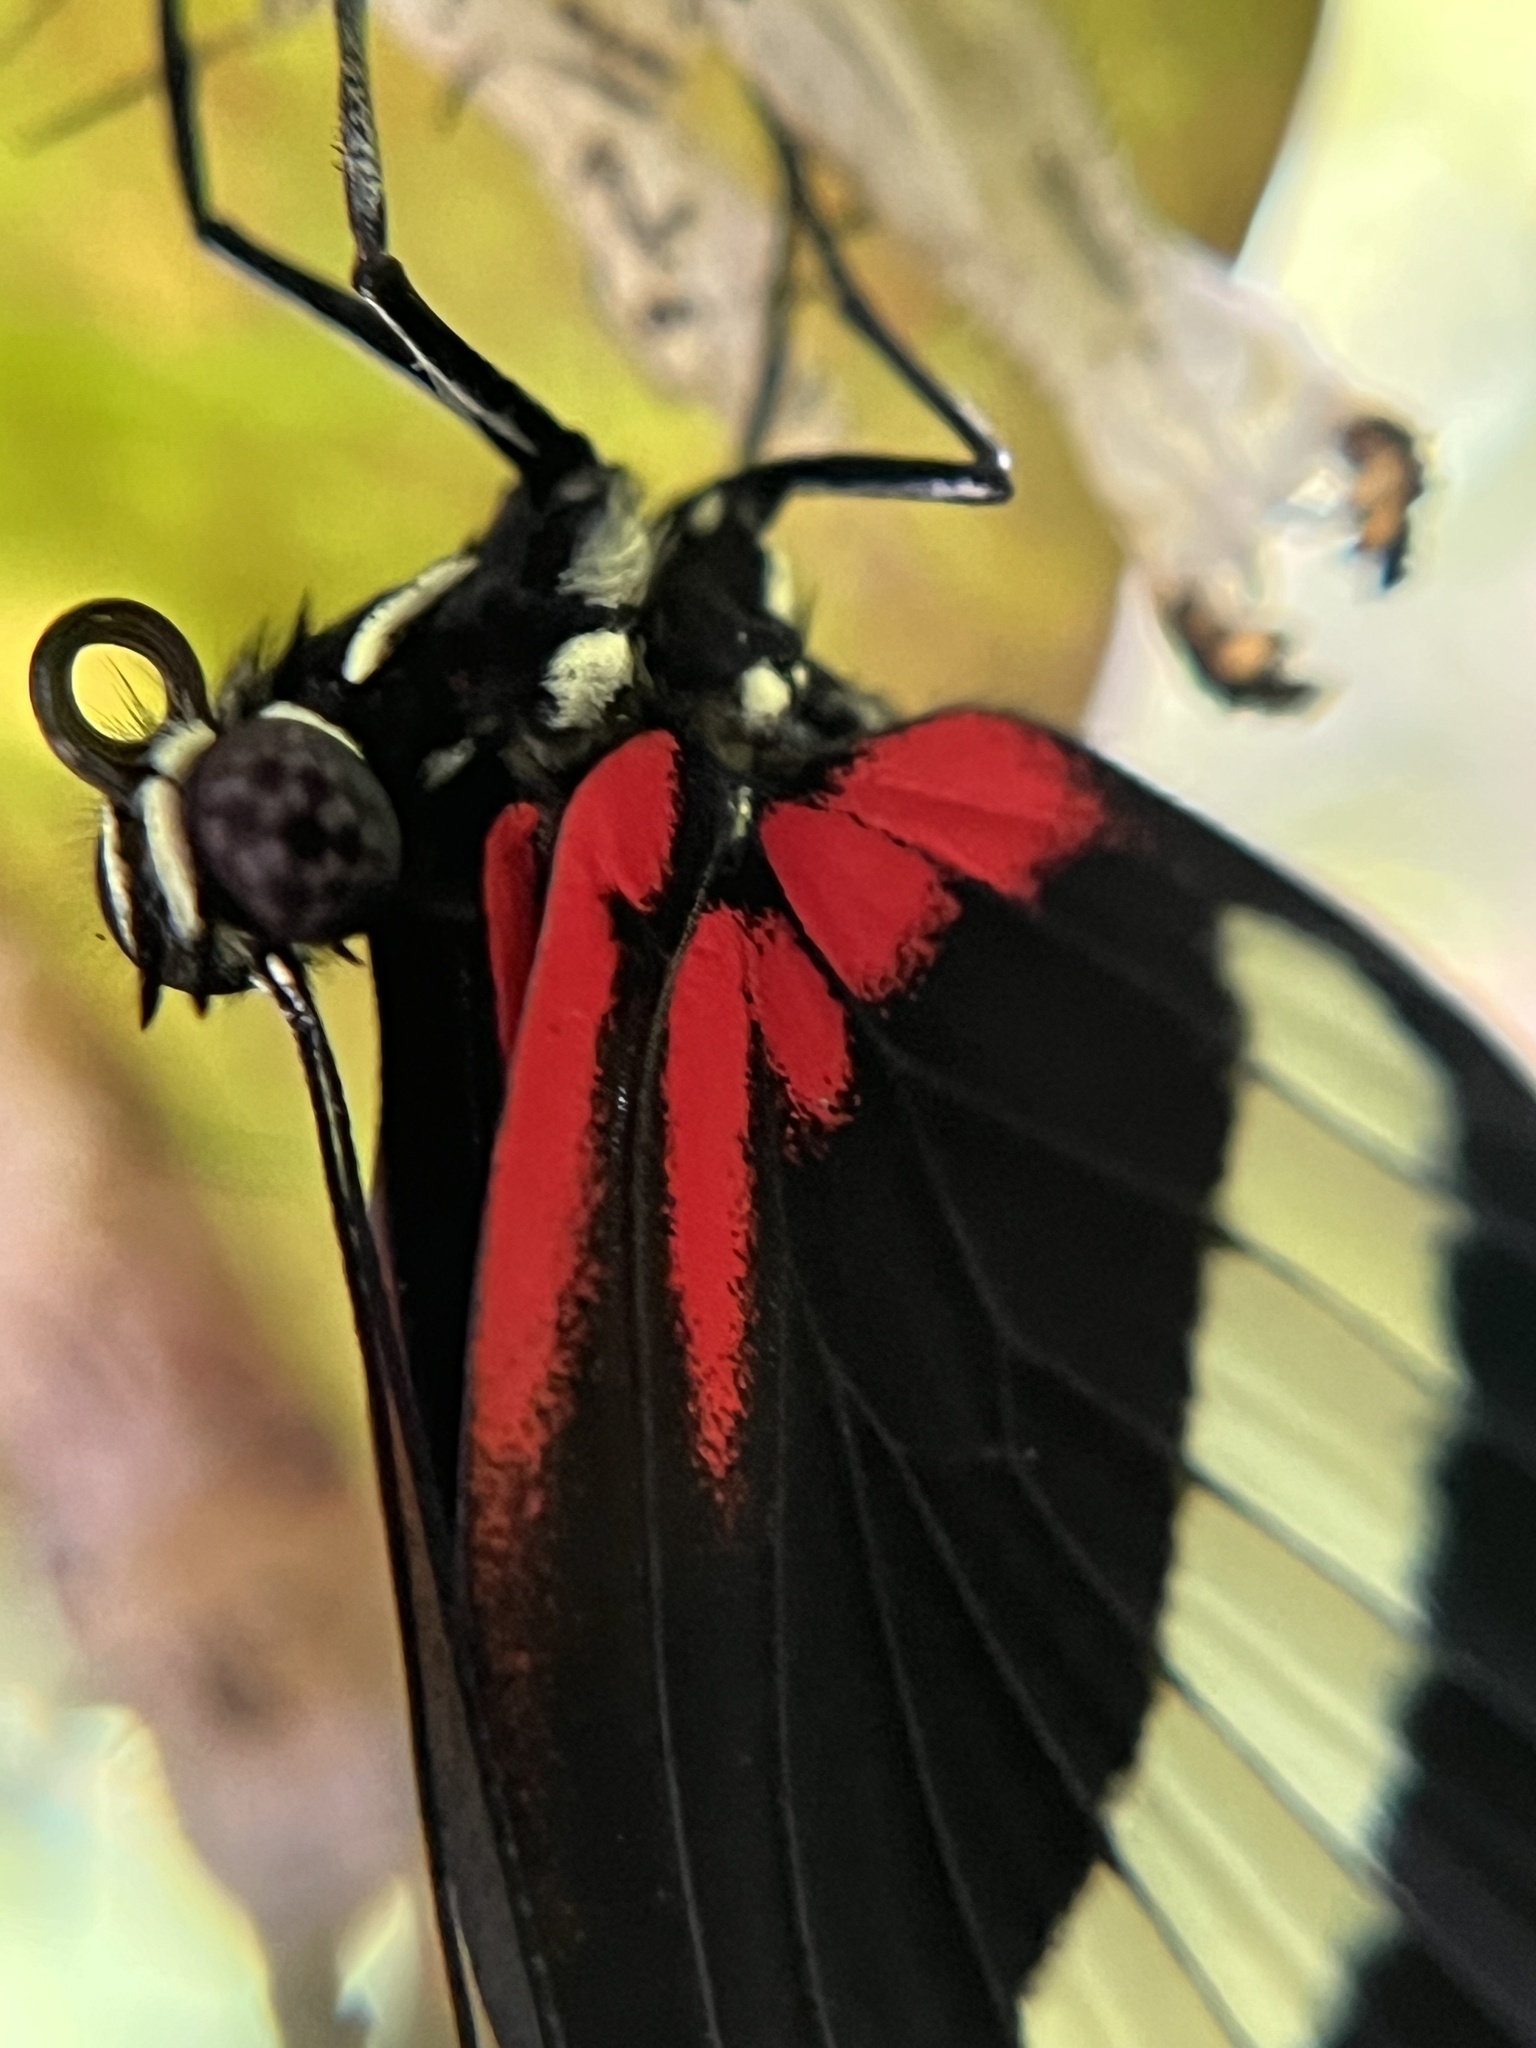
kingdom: Animalia
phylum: Arthropoda
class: Insecta
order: Lepidoptera
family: Nymphalidae
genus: Heliconius
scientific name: Heliconius hewitsoni
